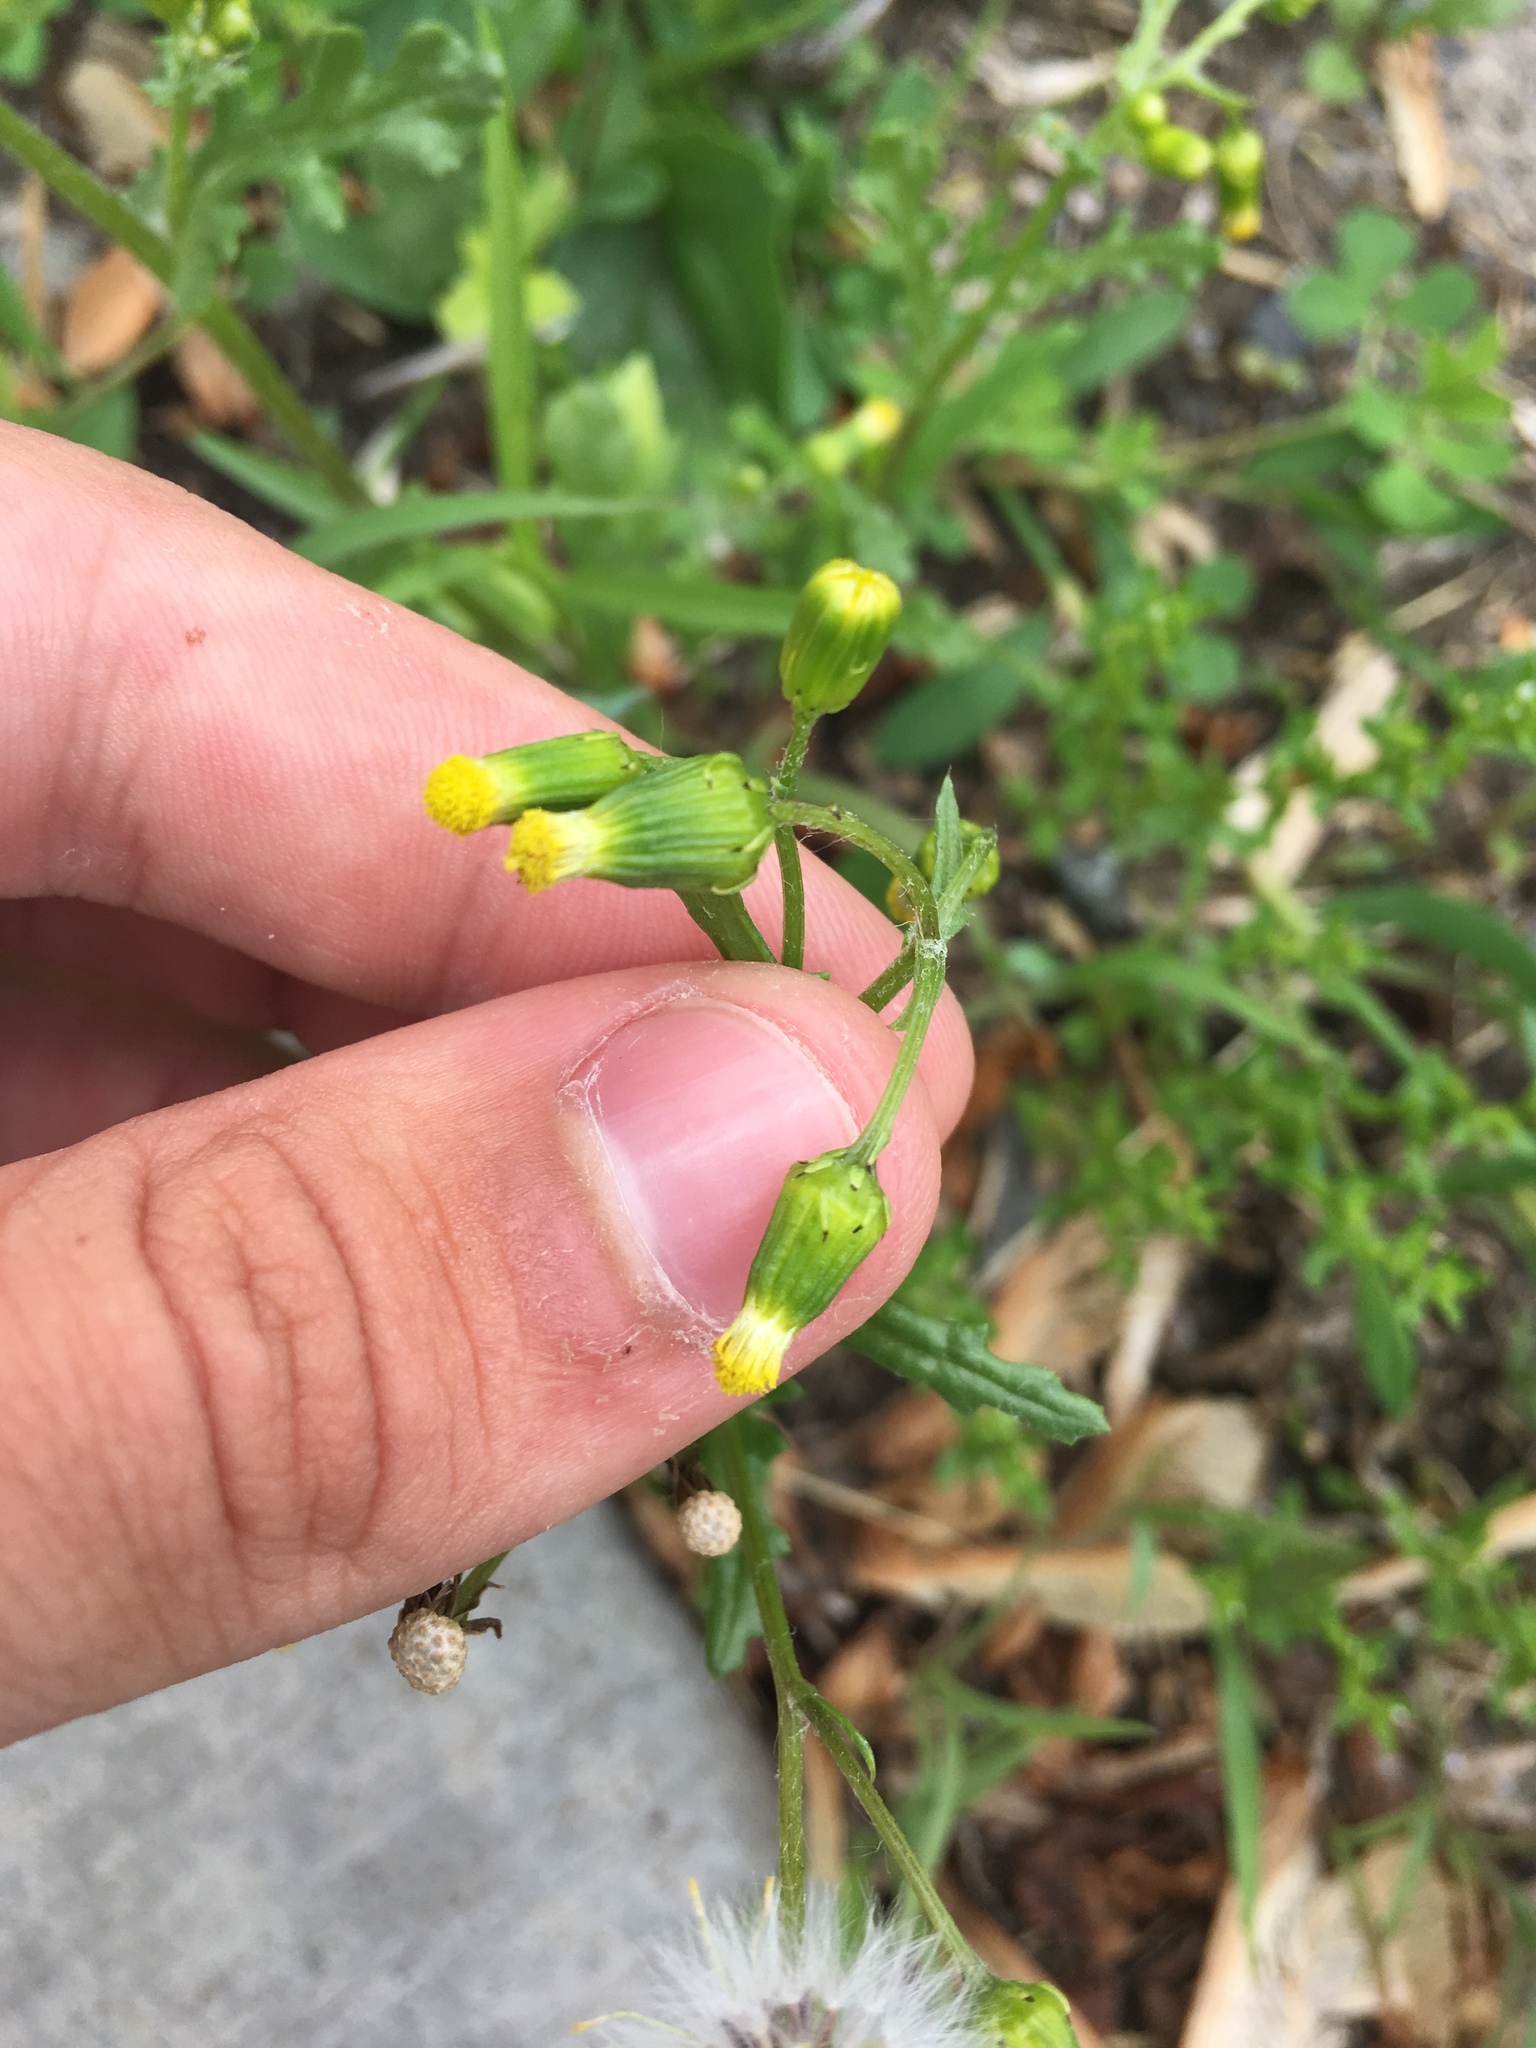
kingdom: Plantae
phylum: Tracheophyta
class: Magnoliopsida
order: Asterales
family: Asteraceae
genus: Senecio
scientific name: Senecio vulgaris
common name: Old-man-in-the-spring
